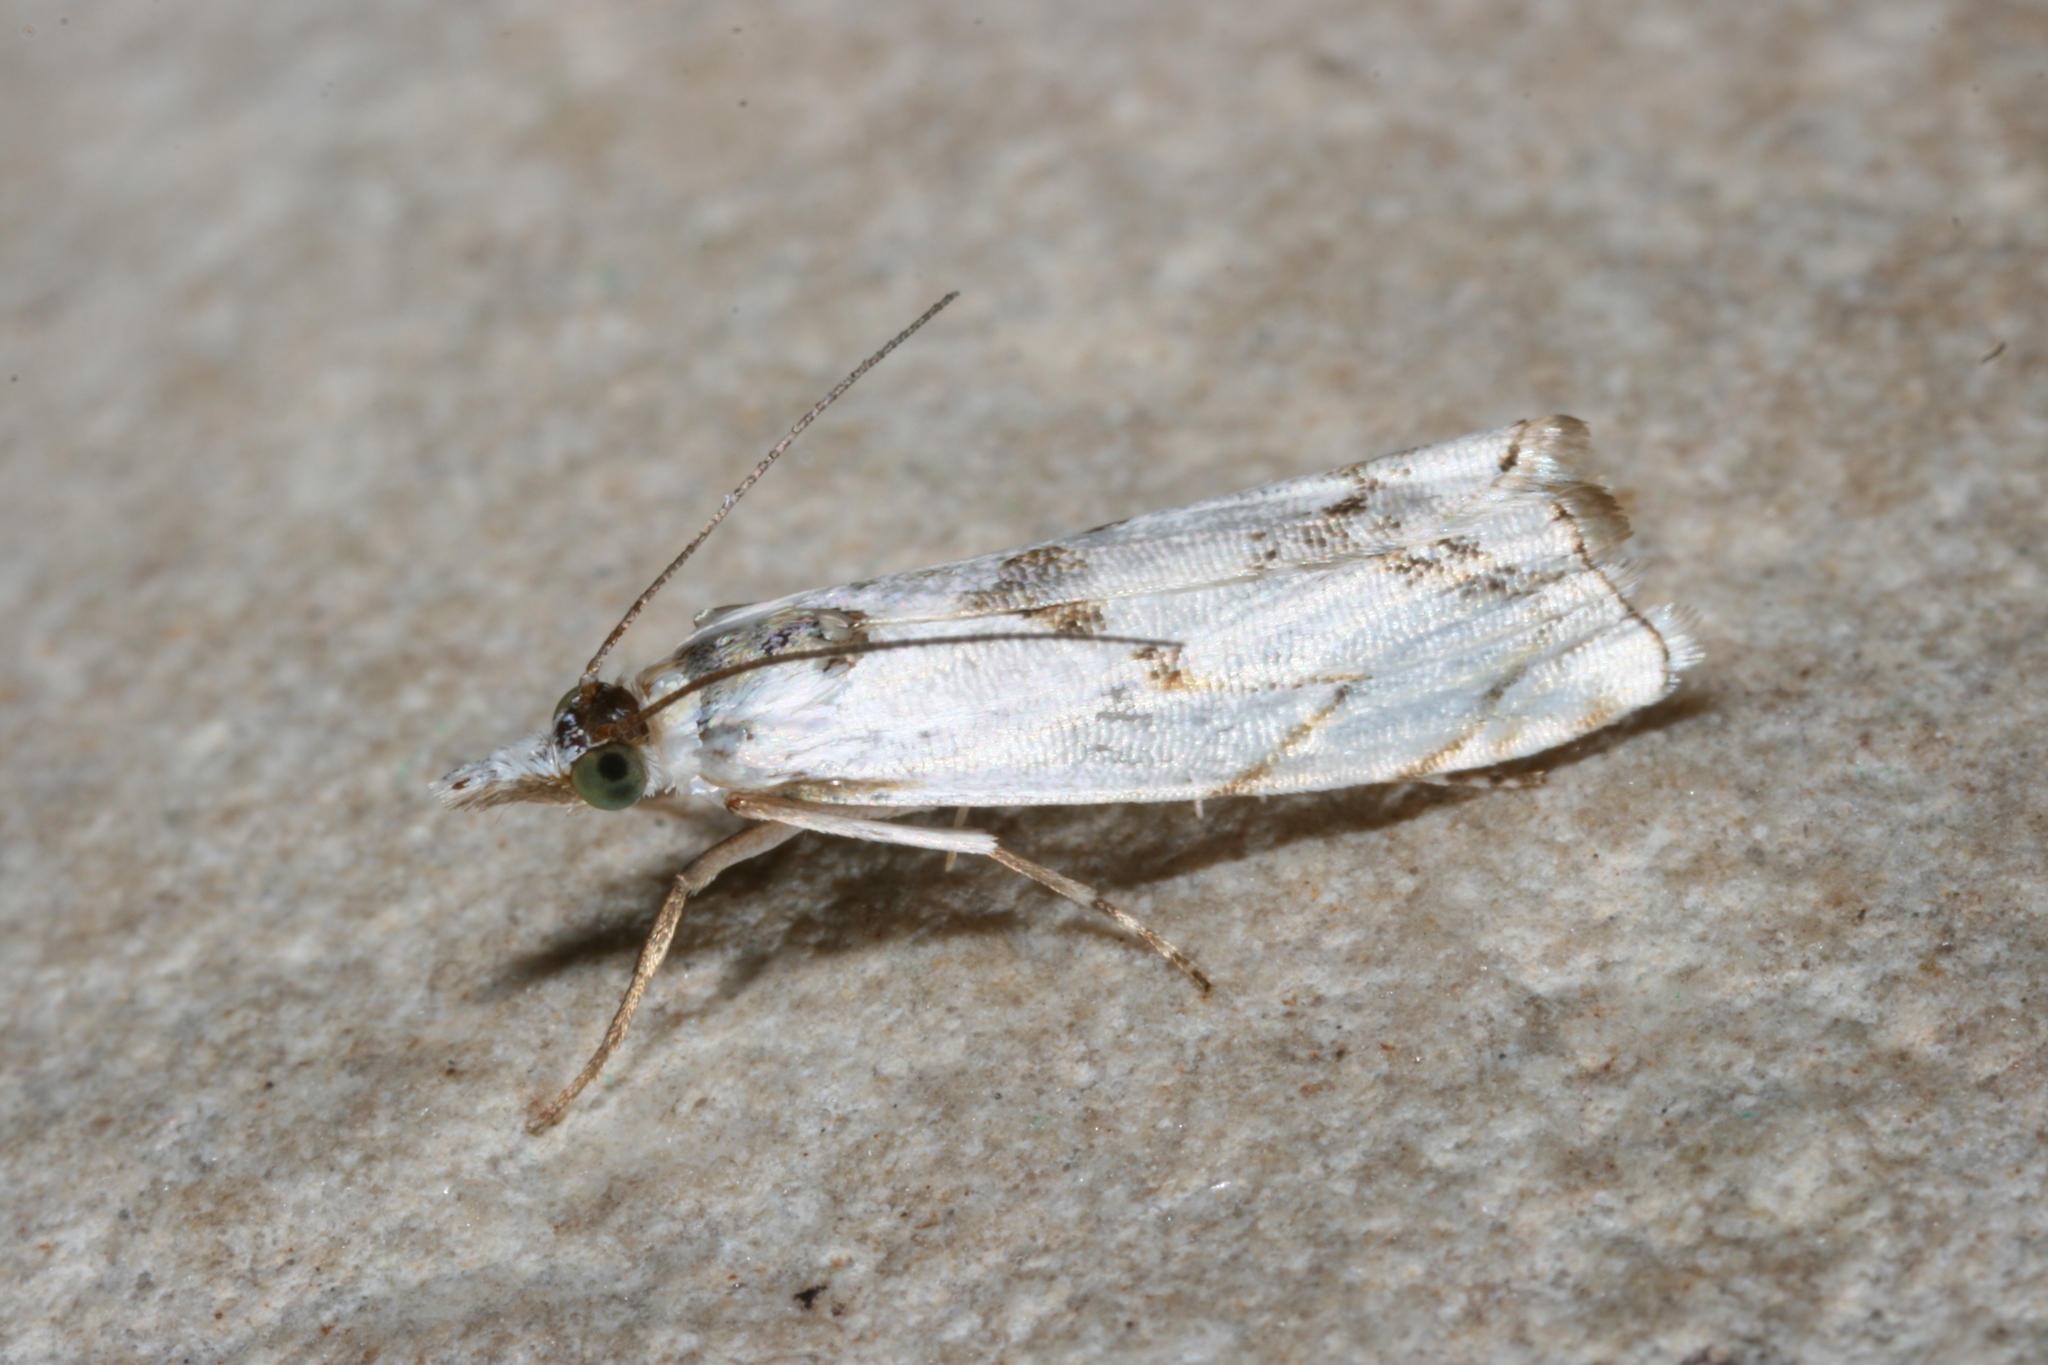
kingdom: Animalia
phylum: Arthropoda
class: Insecta
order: Lepidoptera
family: Crambidae
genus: Microcrambus
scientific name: Microcrambus copelandi
